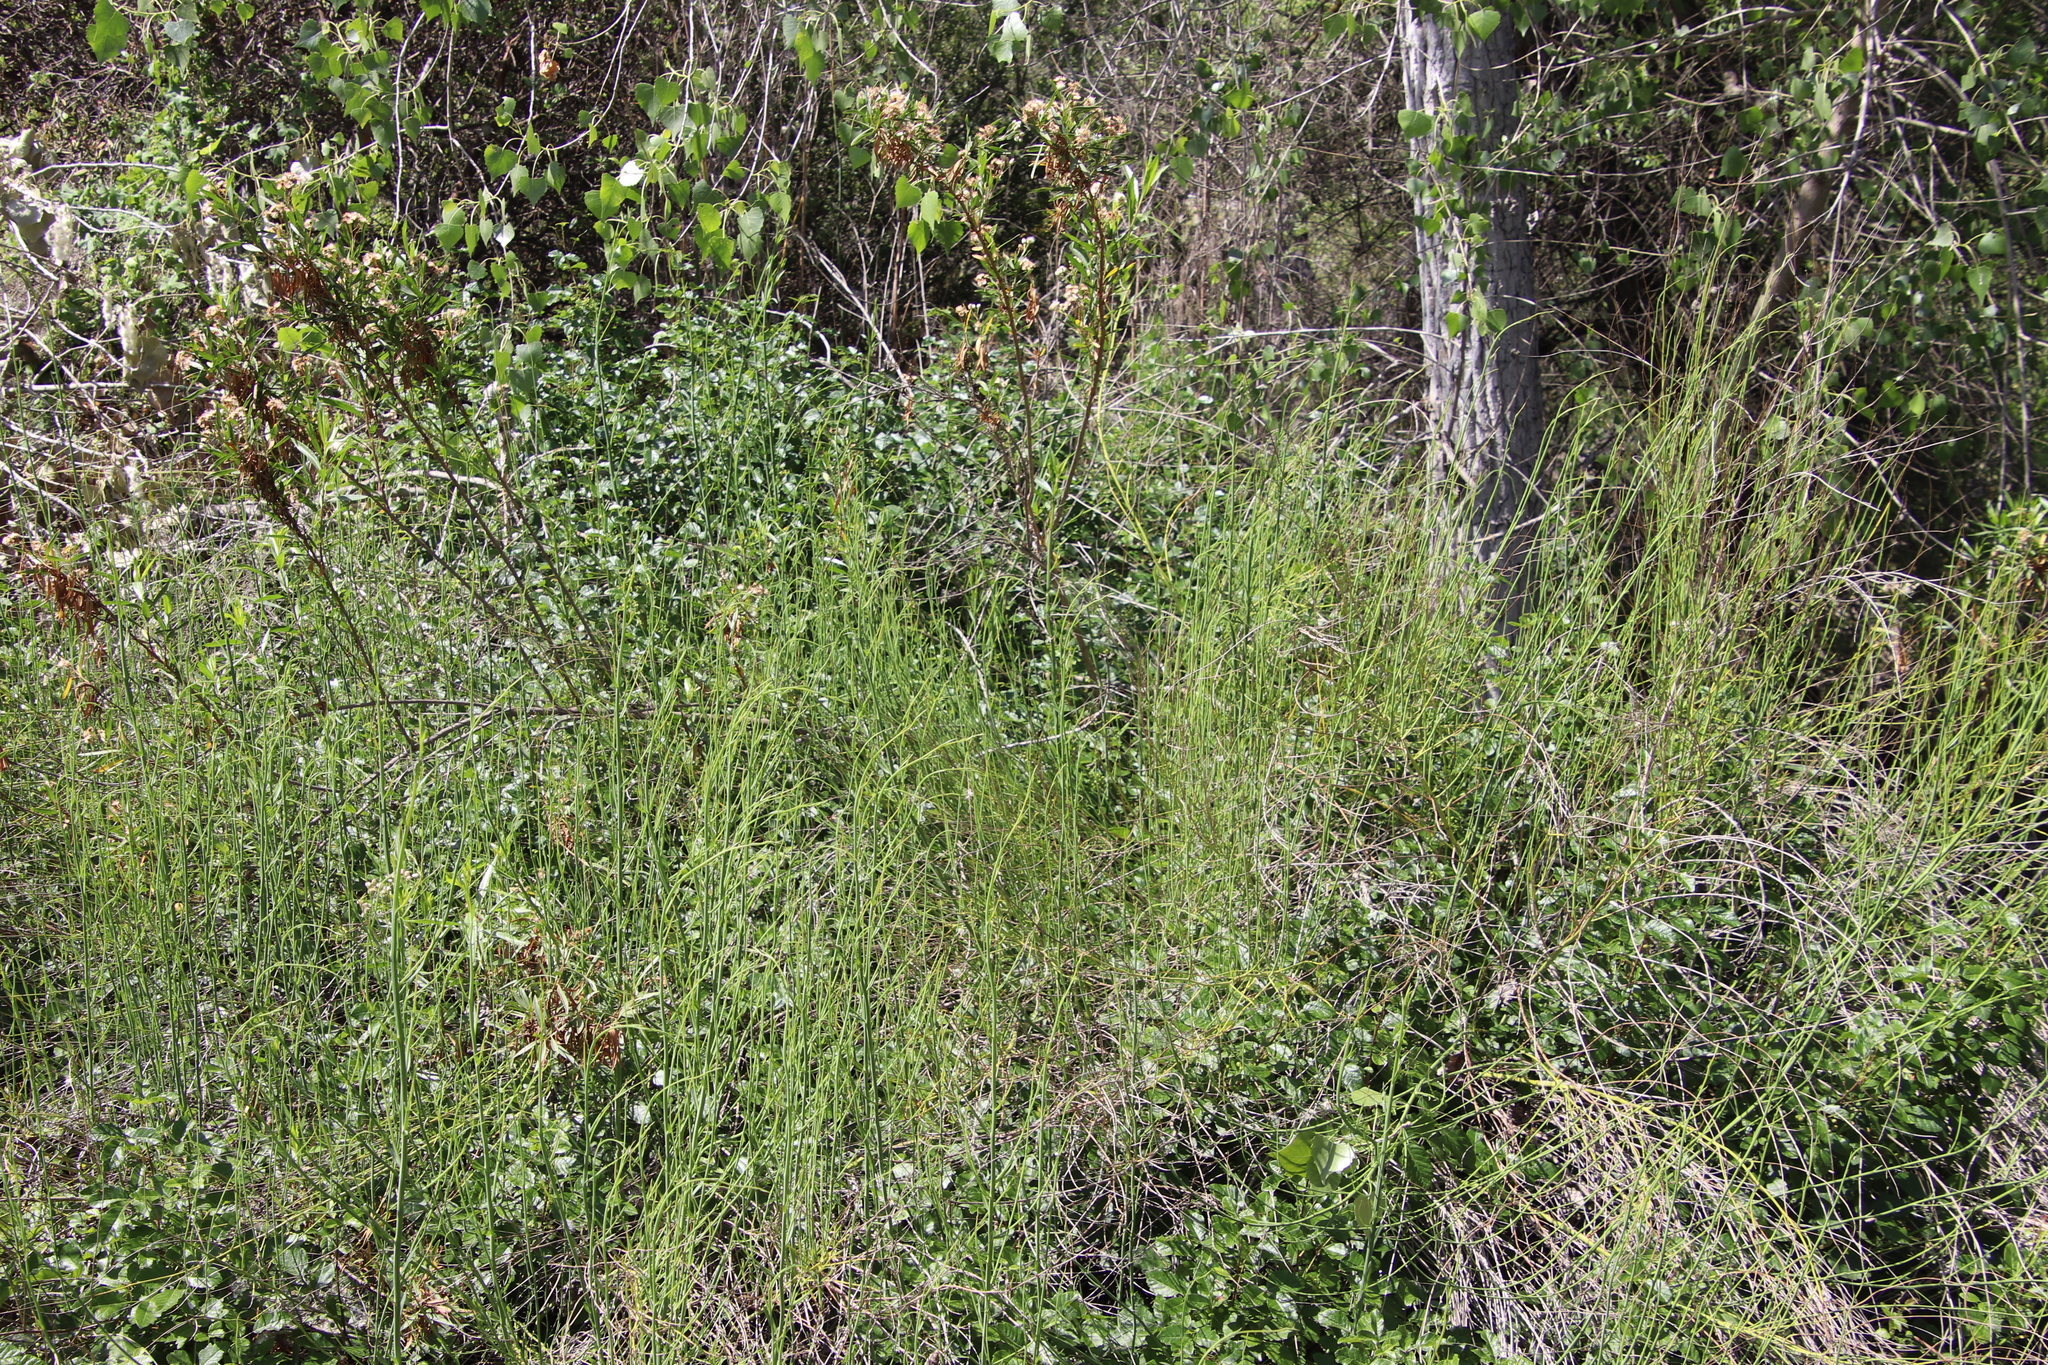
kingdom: Plantae
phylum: Tracheophyta
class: Magnoliopsida
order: Asterales
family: Asteraceae
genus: Chloracantha
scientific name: Chloracantha spinosa
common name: Mexican devilweed
